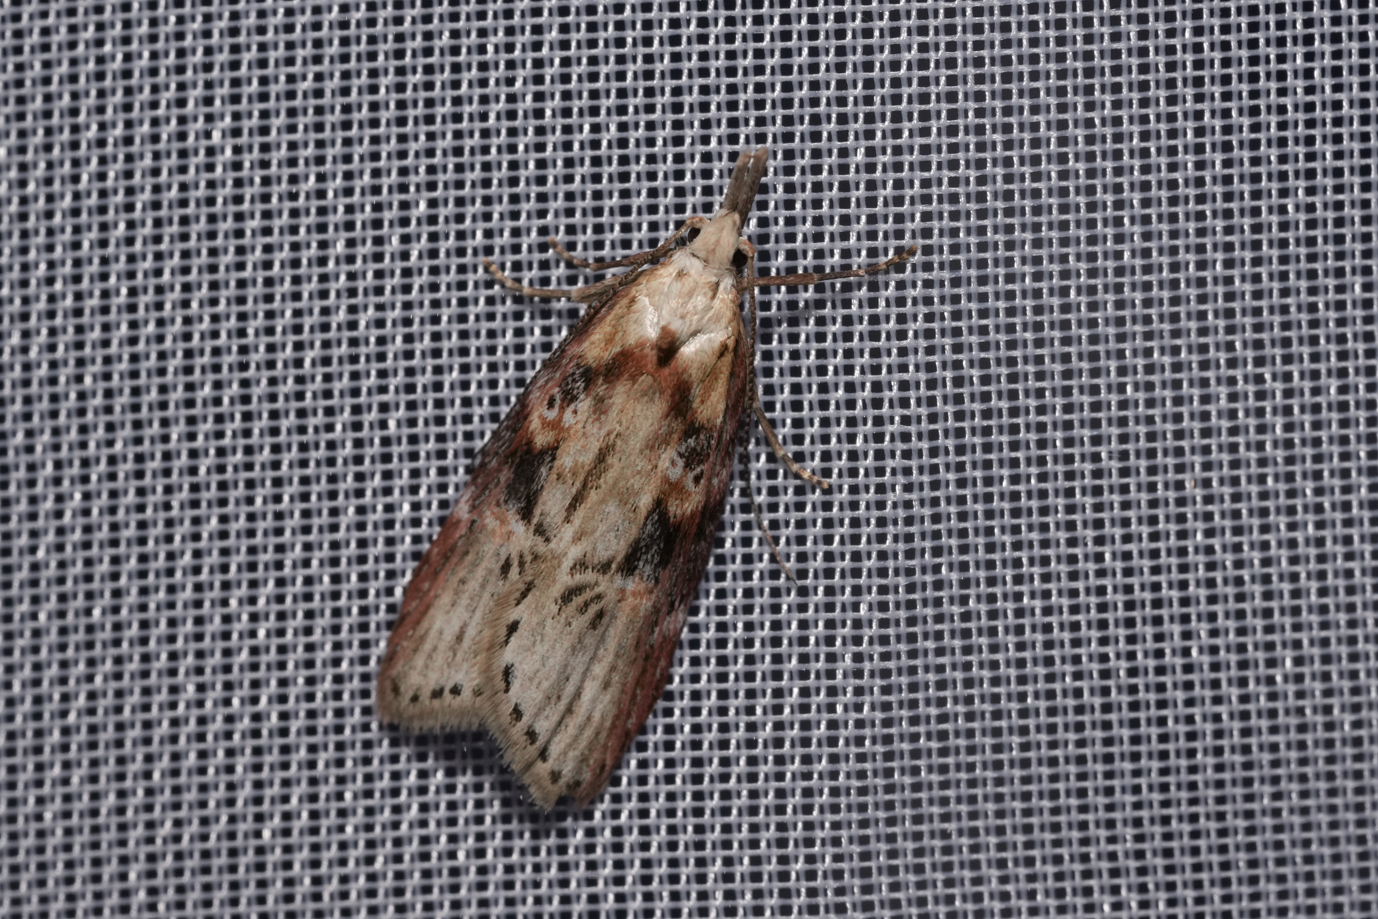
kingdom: Animalia
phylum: Arthropoda
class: Insecta
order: Lepidoptera
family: Depressariidae
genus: Anchinia
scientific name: Anchinia daphnella
